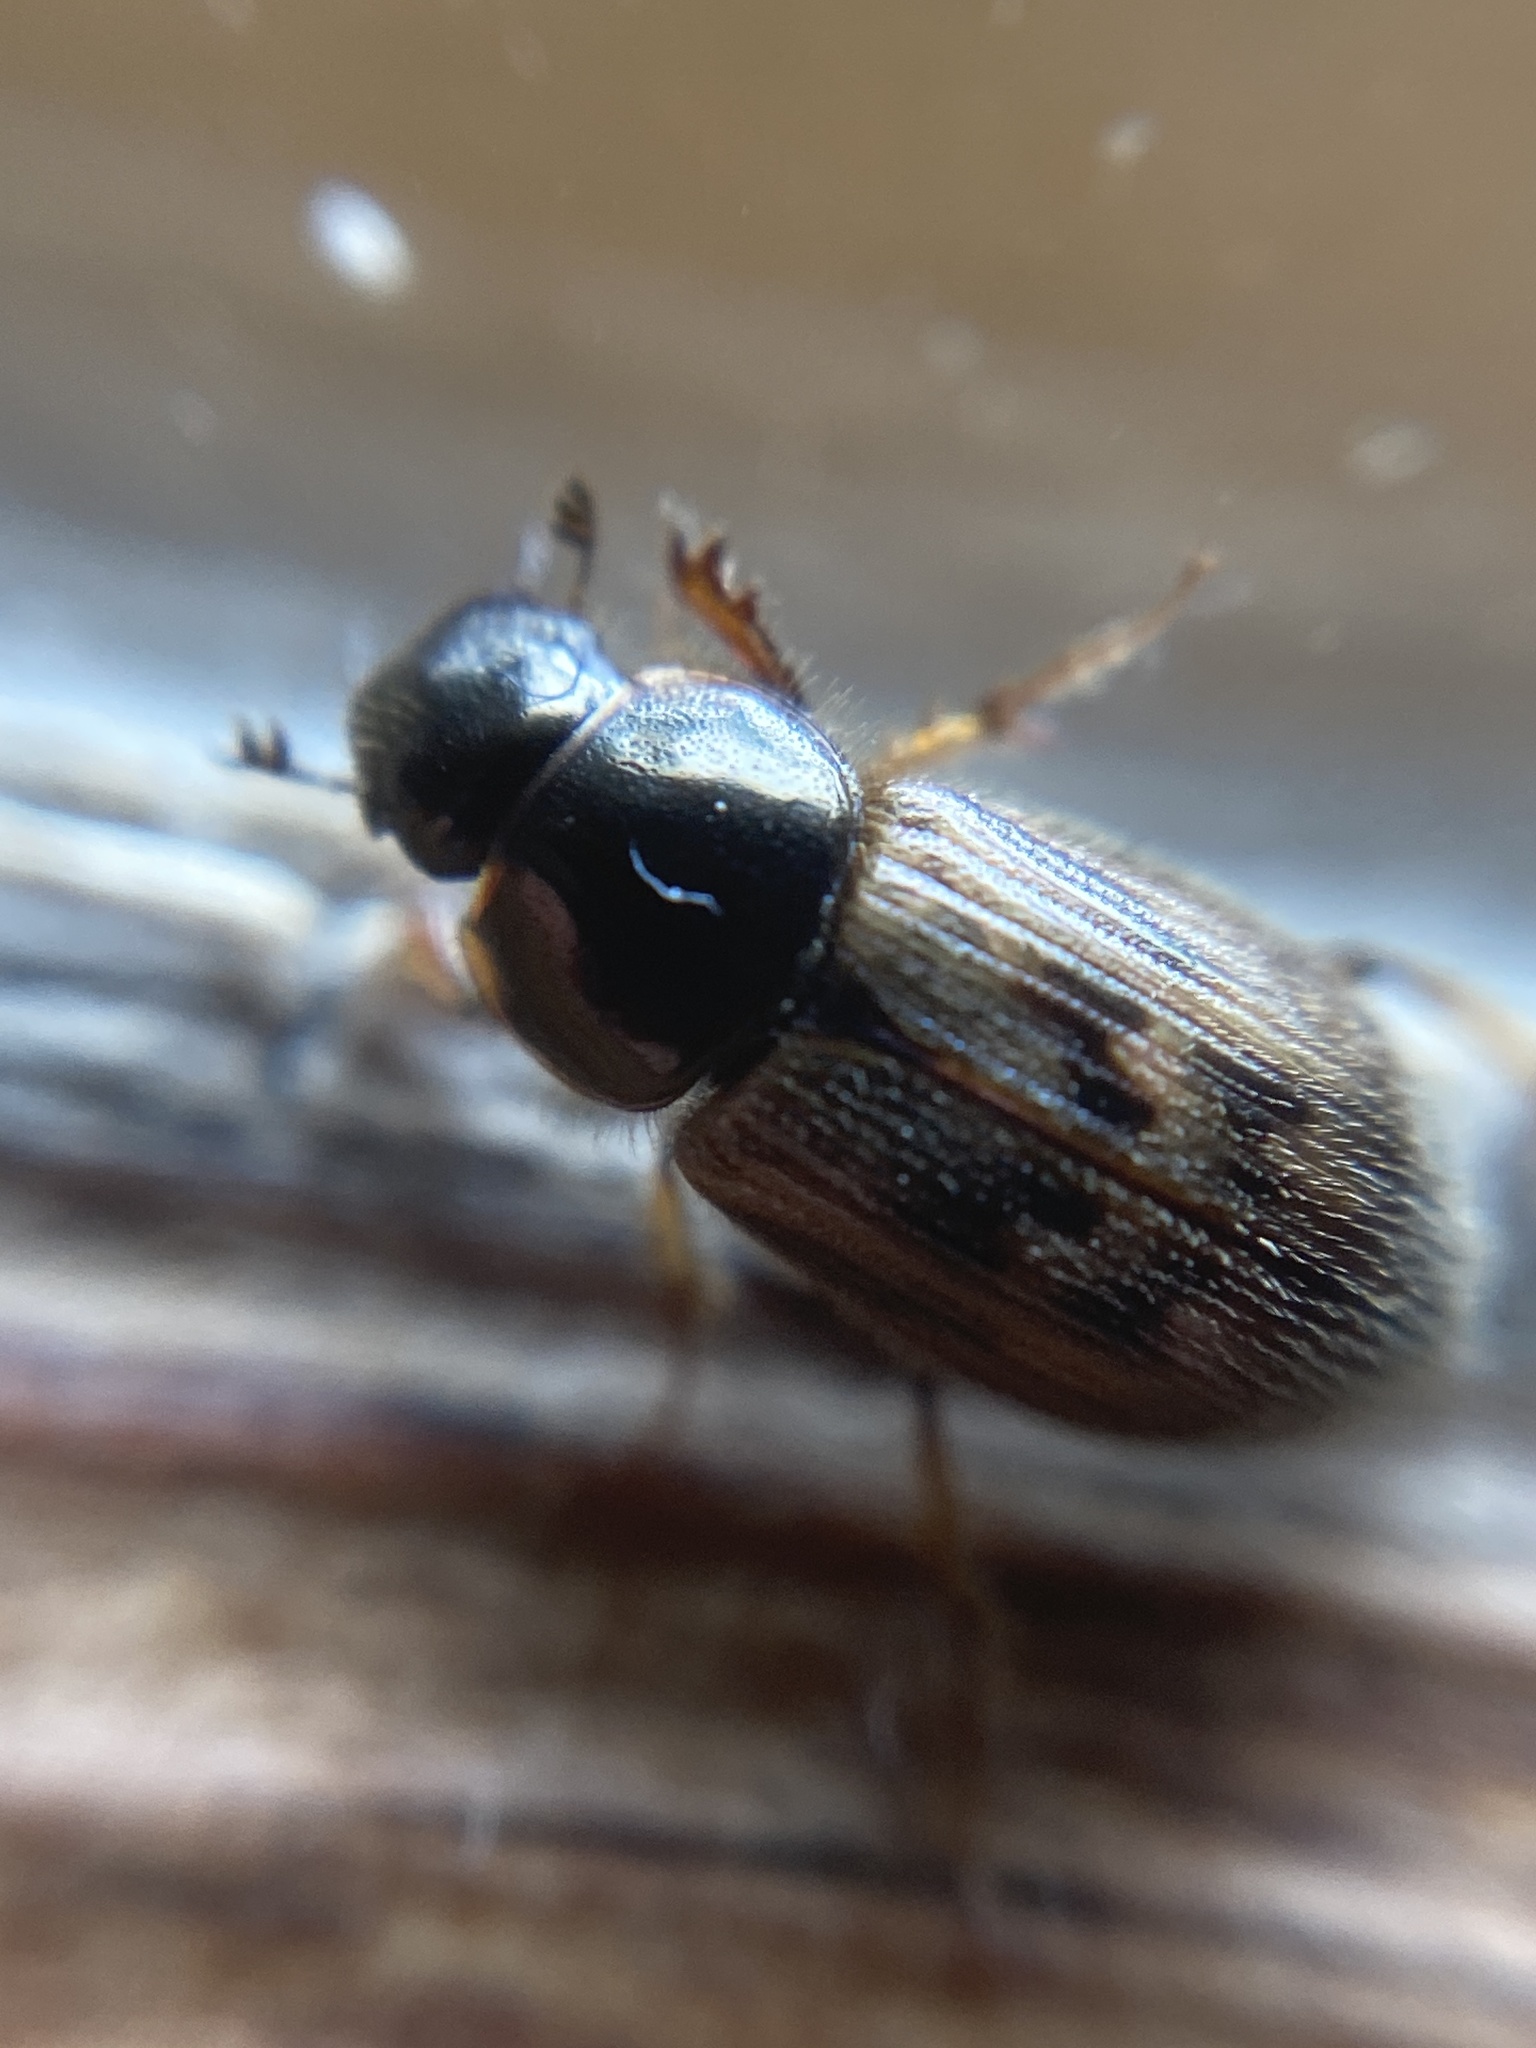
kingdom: Animalia
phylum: Arthropoda
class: Insecta
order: Coleoptera
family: Scarabaeidae
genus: Nimbus
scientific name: Nimbus contaminatus
